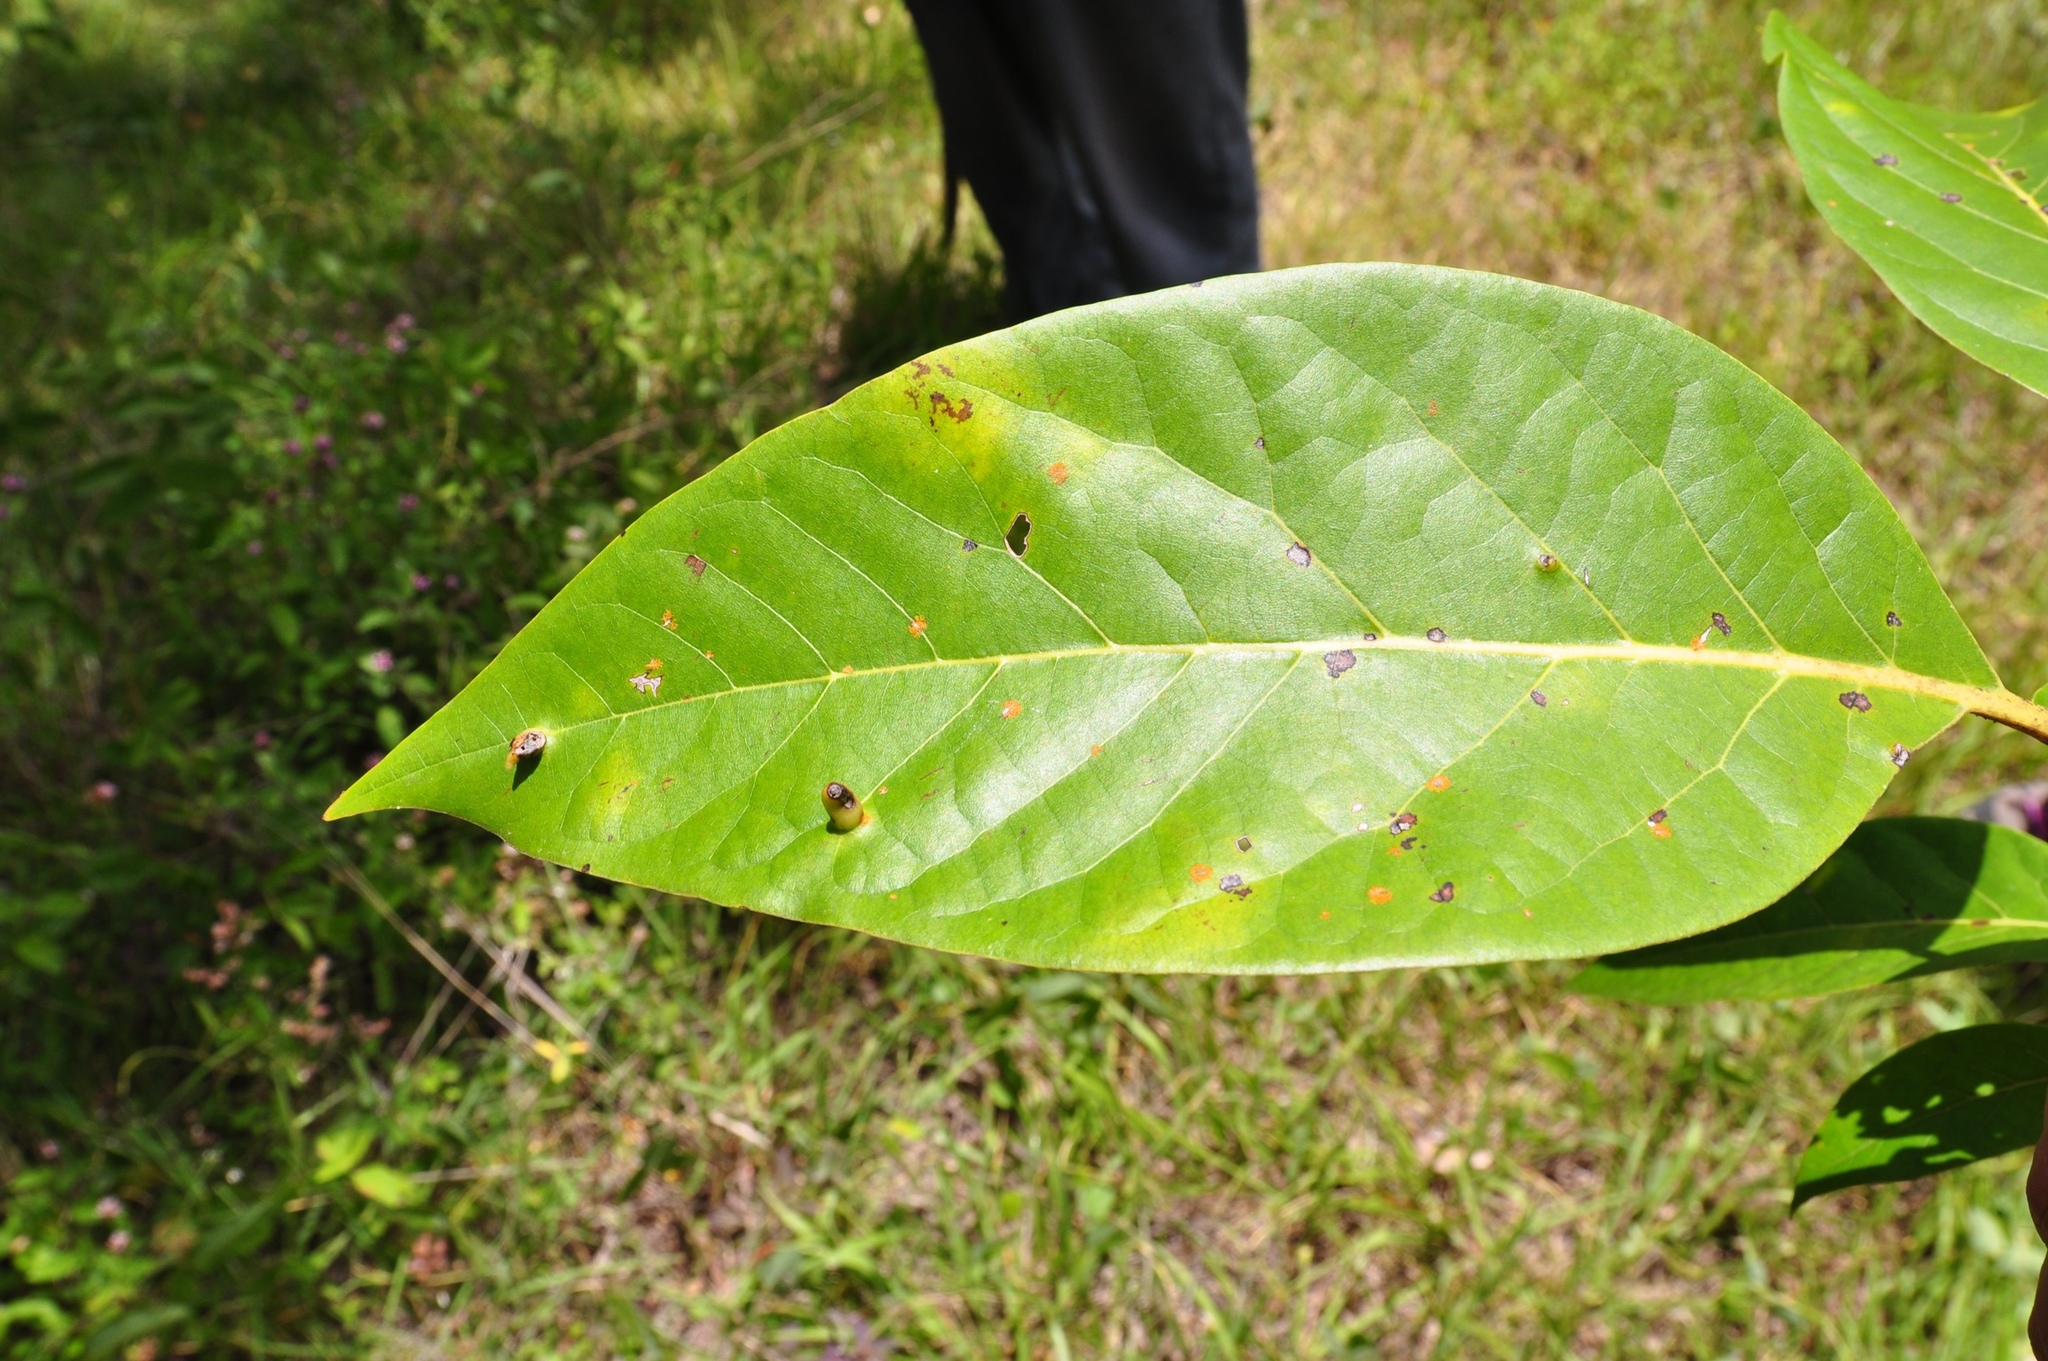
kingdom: Plantae
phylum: Tracheophyta
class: Magnoliopsida
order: Laurales
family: Lauraceae
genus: Persea
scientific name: Persea americana
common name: Avocado
